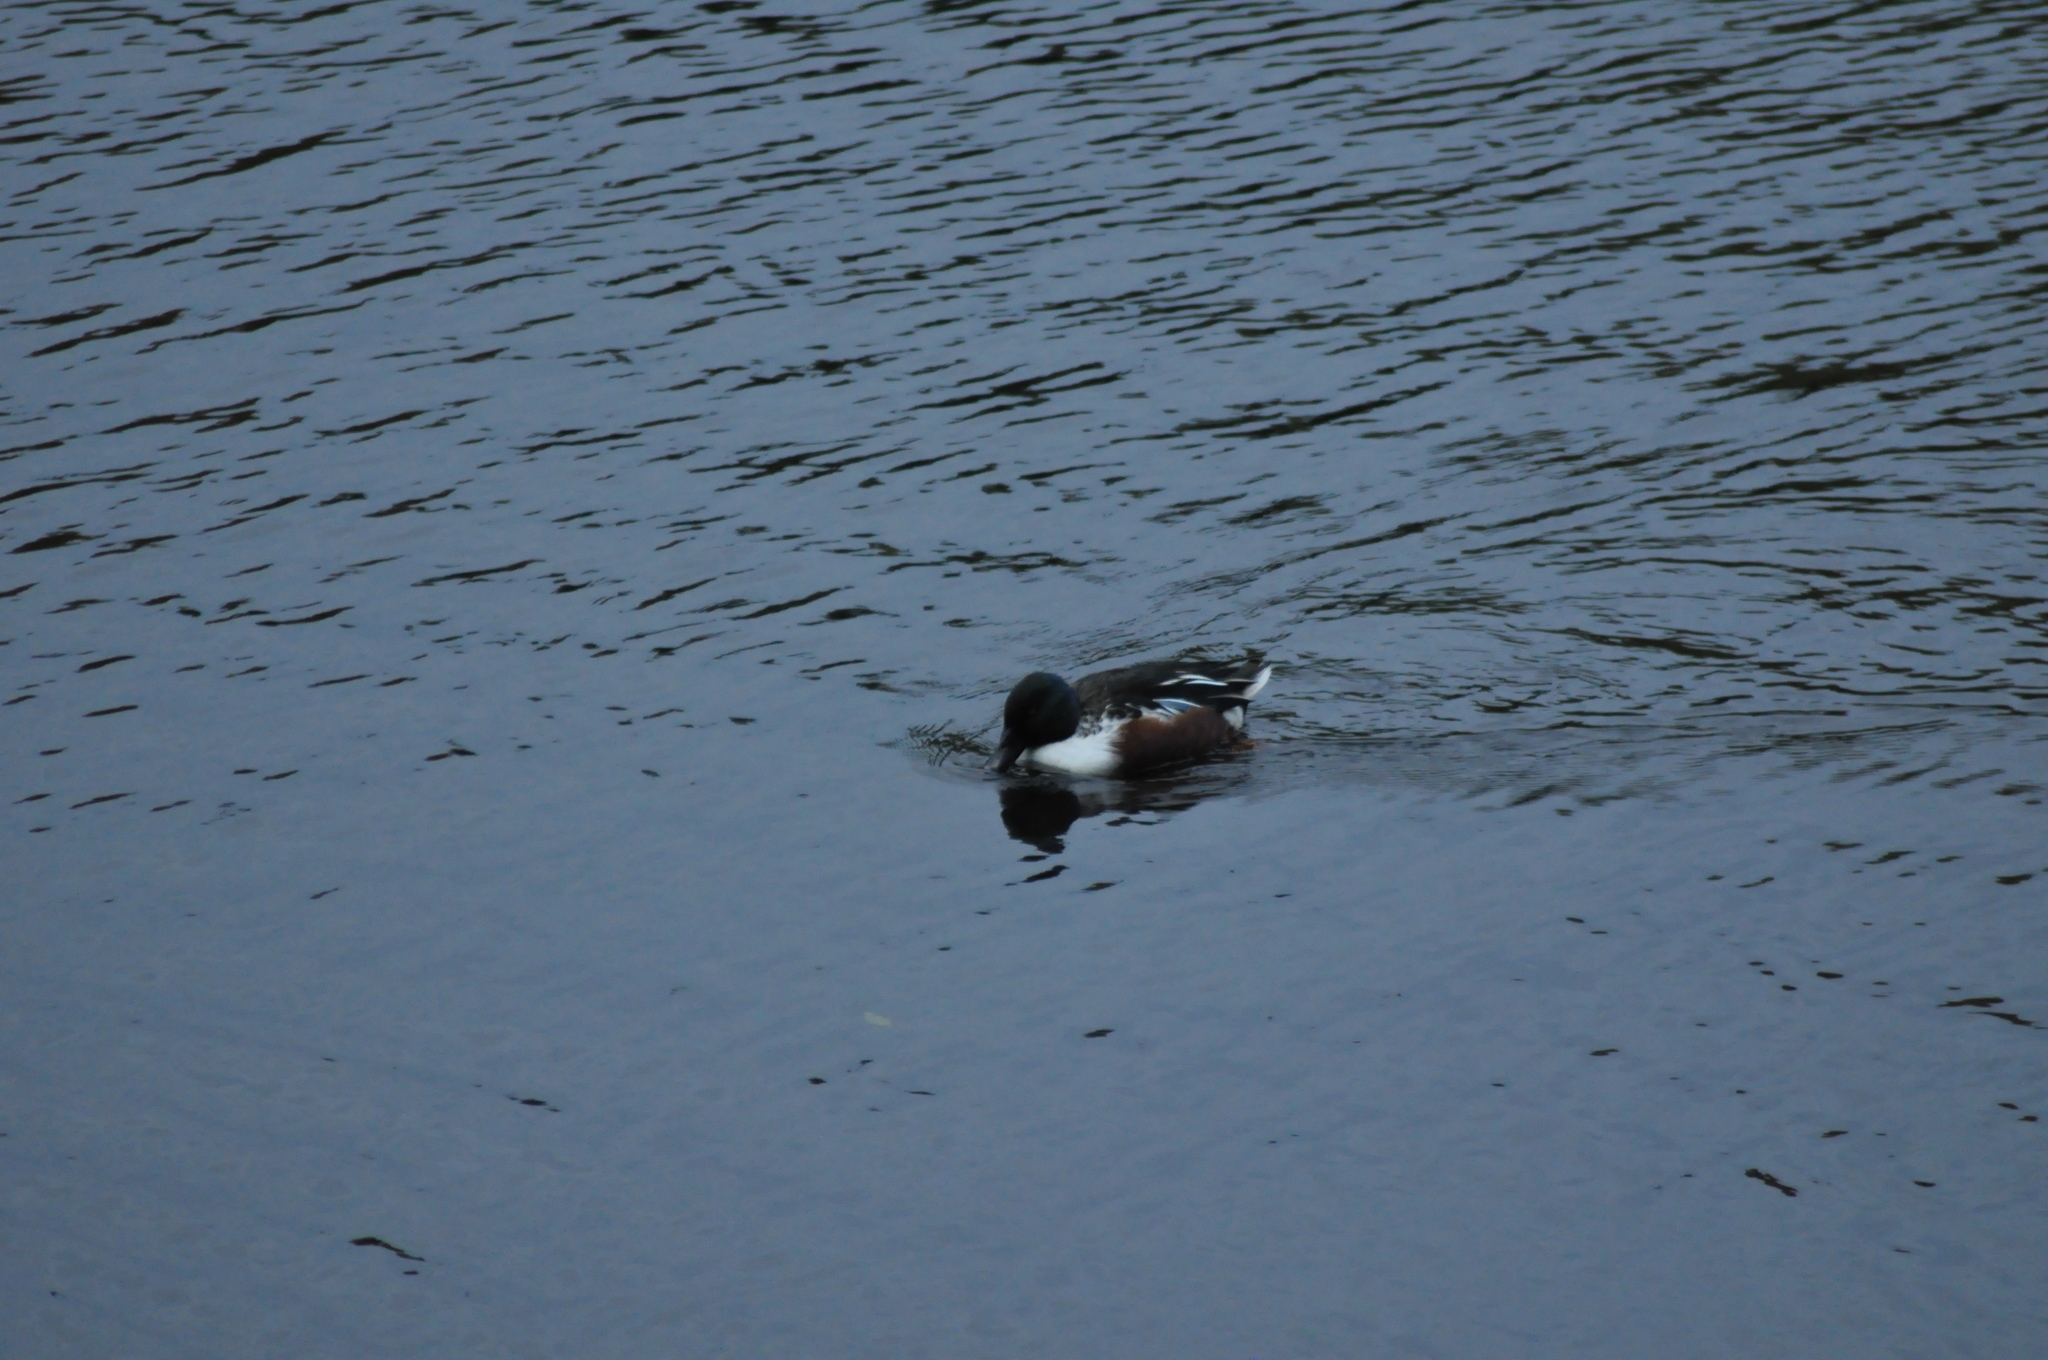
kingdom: Animalia
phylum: Chordata
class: Aves
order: Anseriformes
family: Anatidae
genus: Spatula
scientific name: Spatula clypeata
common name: Northern shoveler
